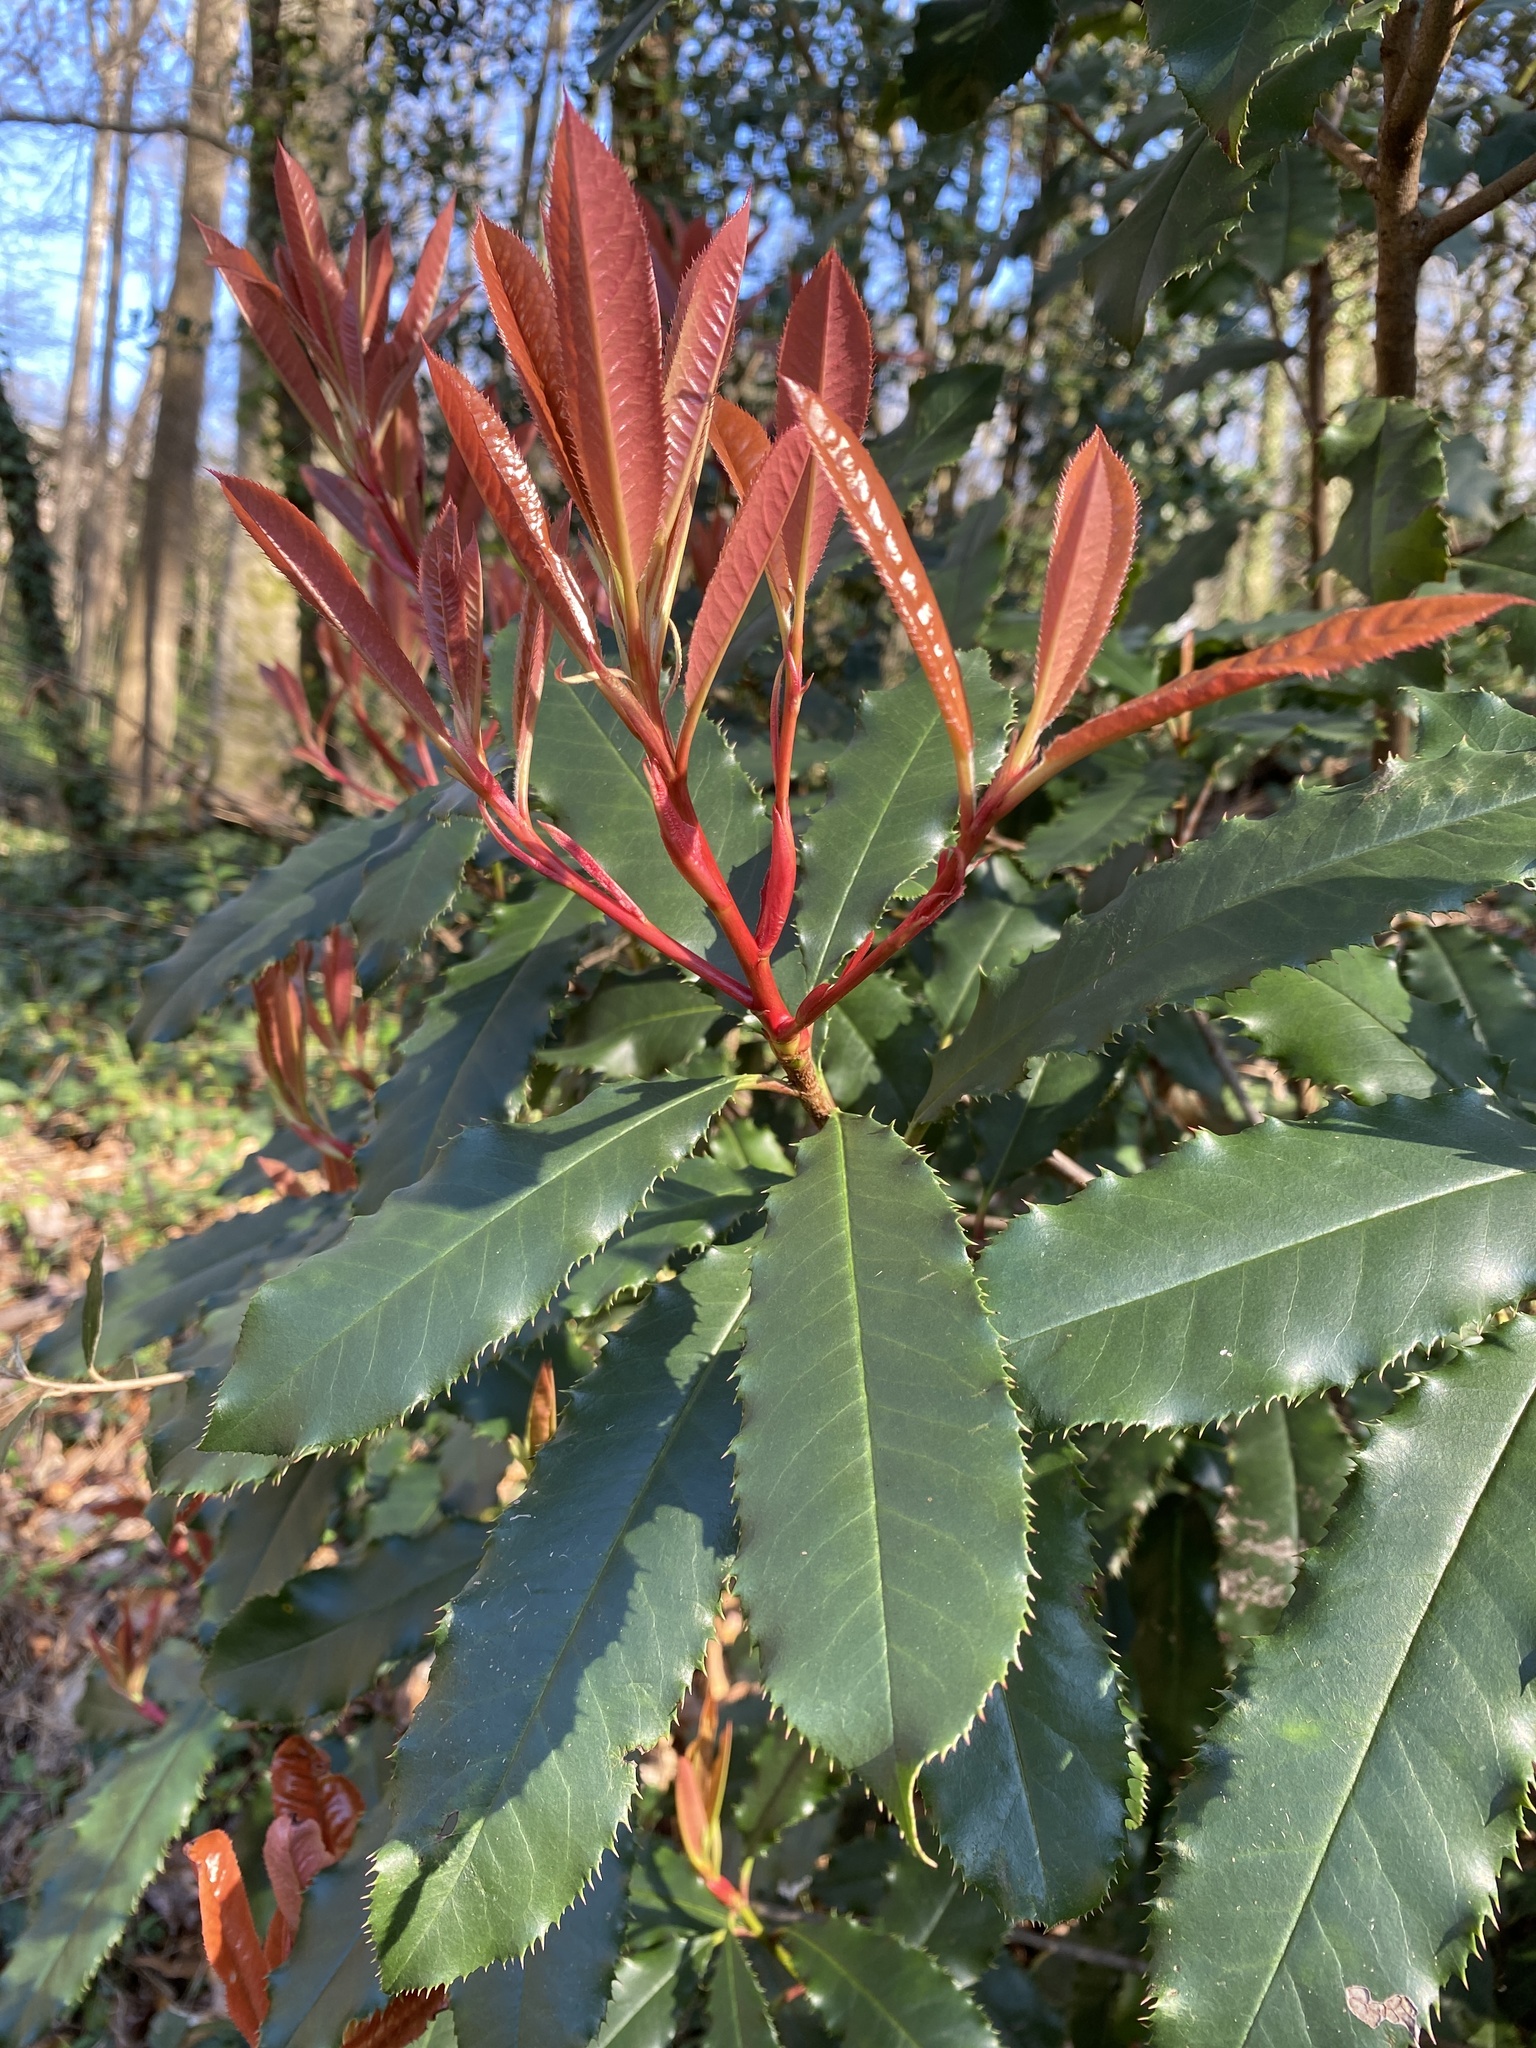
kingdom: Plantae
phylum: Tracheophyta
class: Magnoliopsida
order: Rosales
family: Rosaceae
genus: Photinia
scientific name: Photinia serratifolia
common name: Taiwanese photinia
